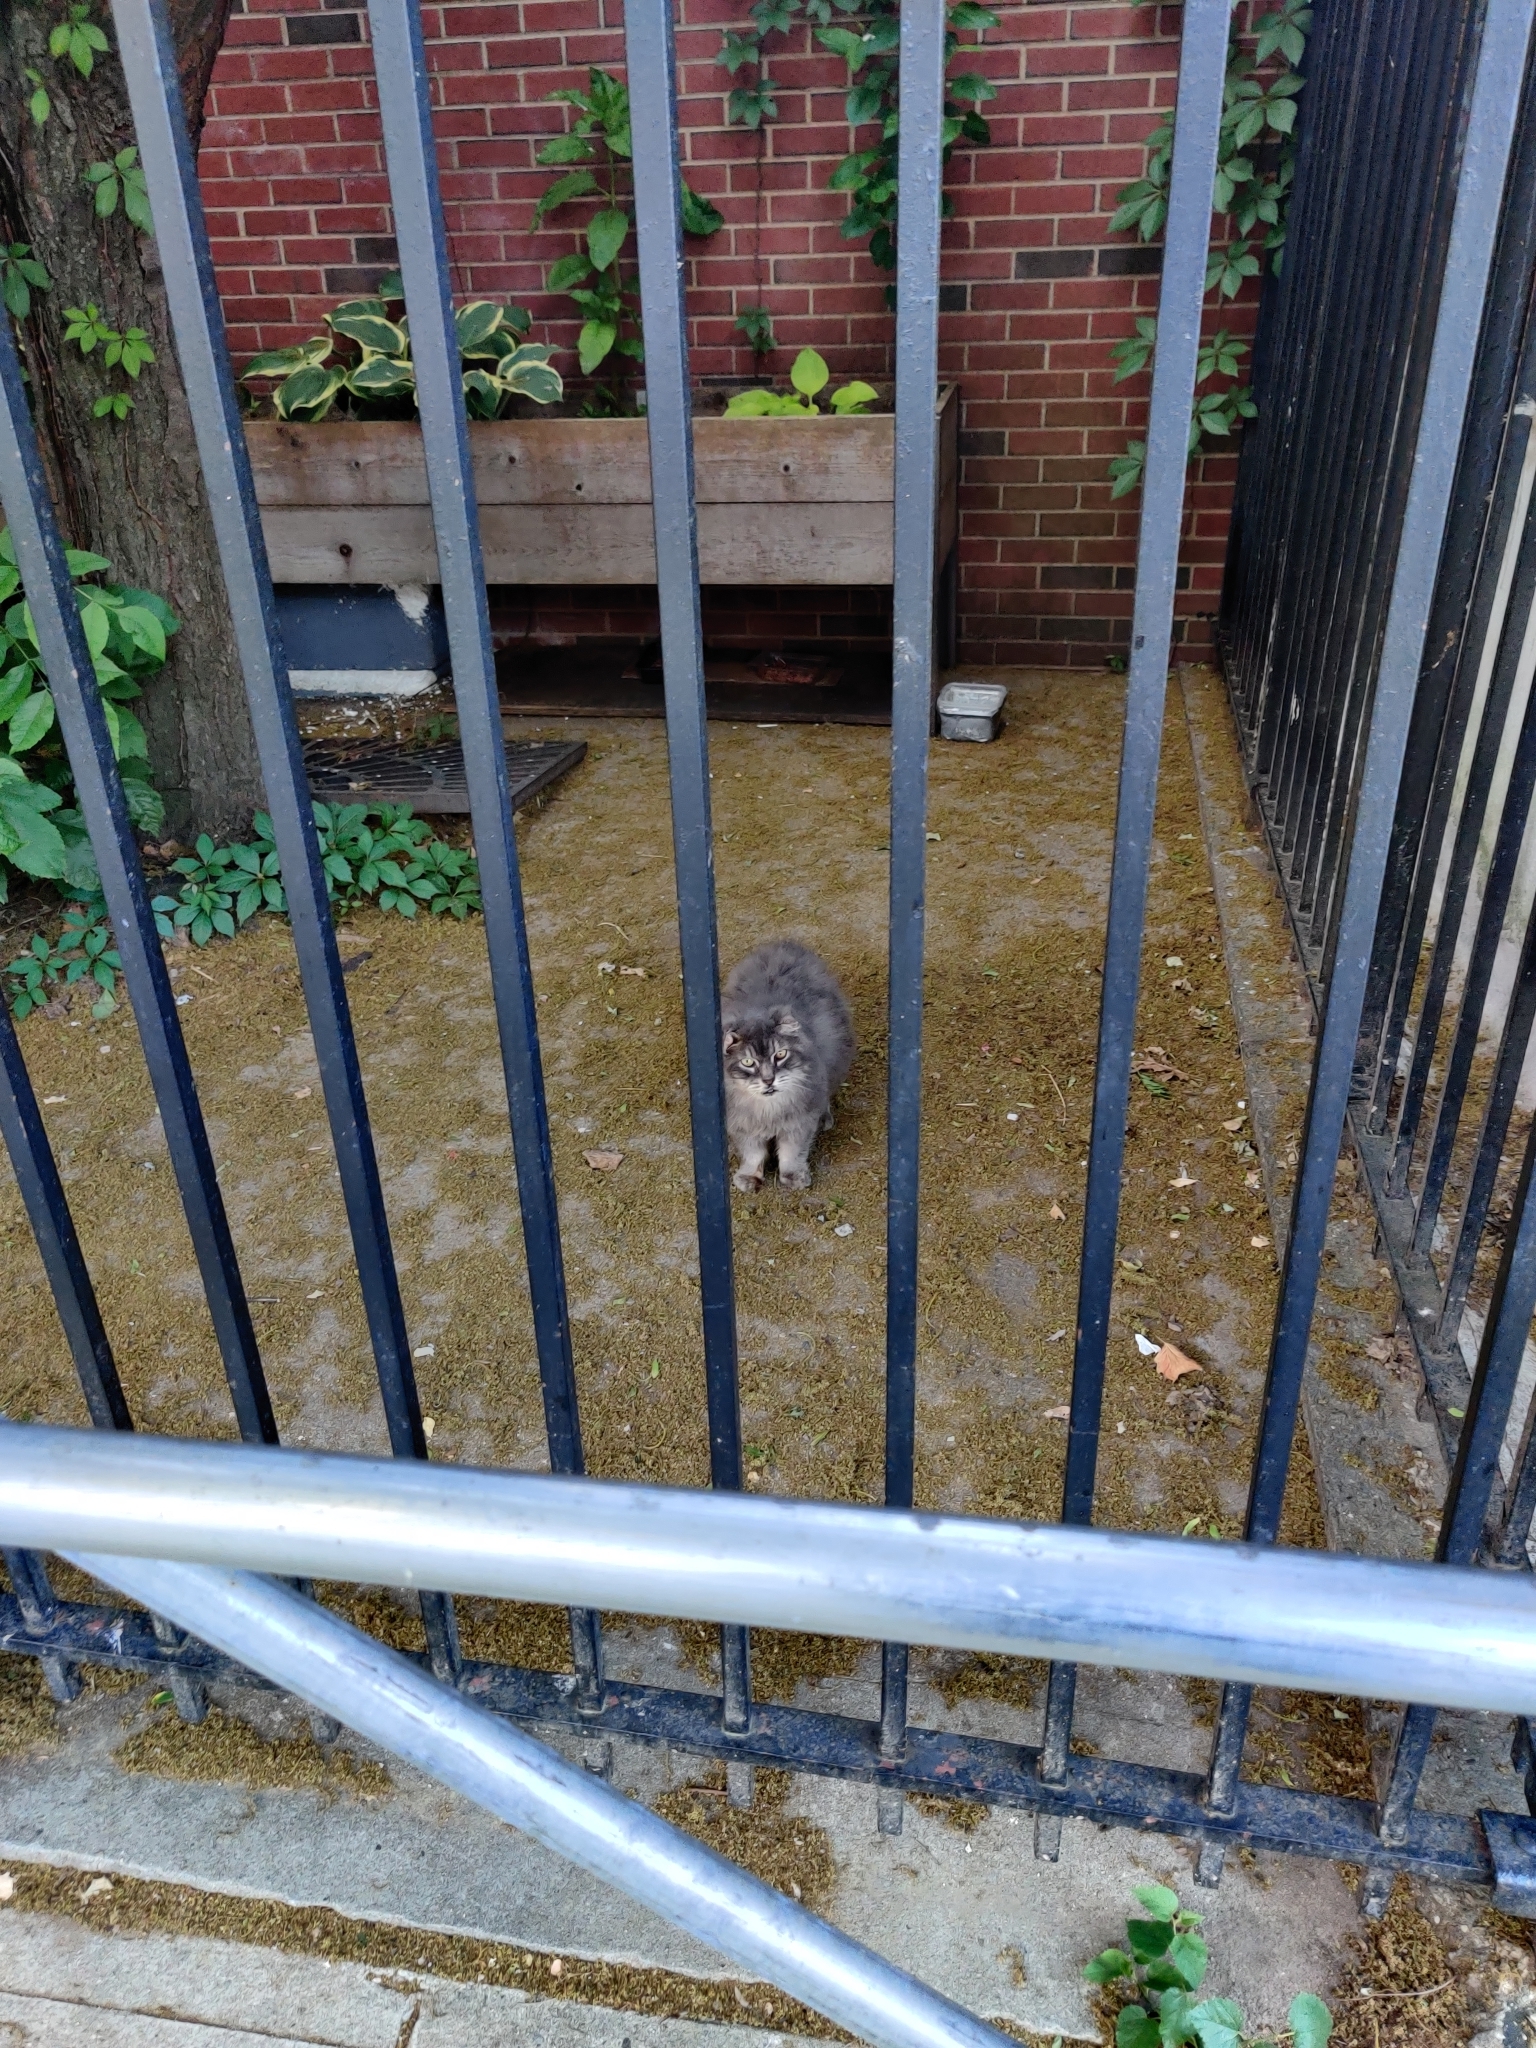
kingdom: Animalia
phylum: Chordata
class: Mammalia
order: Carnivora
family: Felidae
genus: Felis
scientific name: Felis catus
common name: Domestic cat
